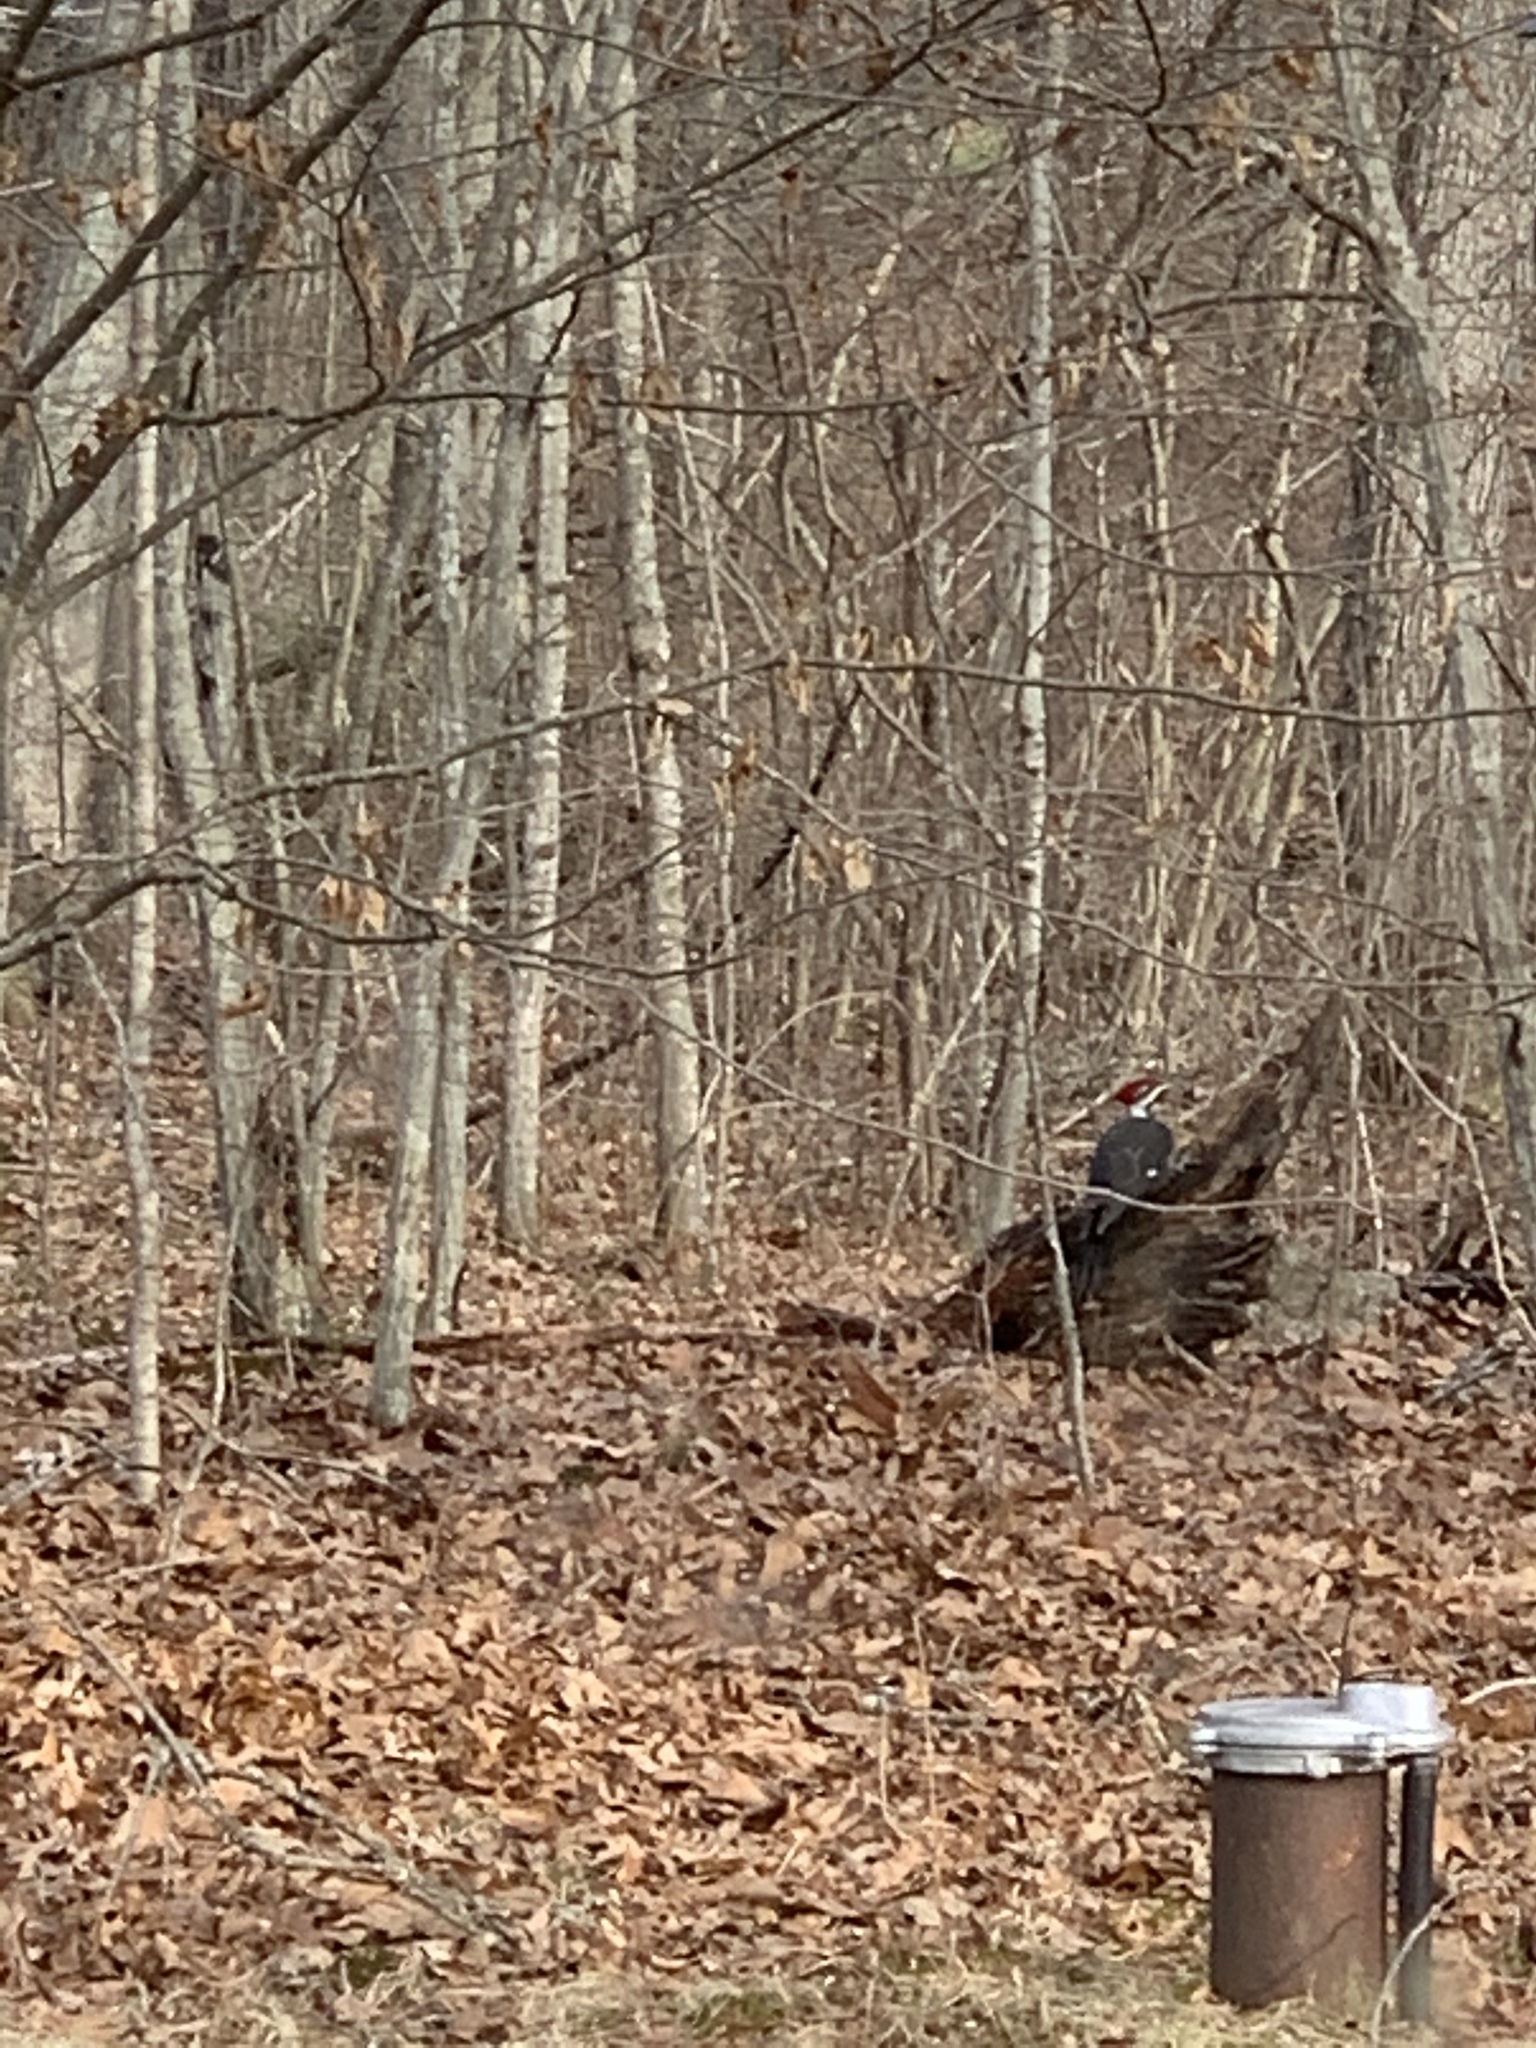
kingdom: Animalia
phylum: Chordata
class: Aves
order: Piciformes
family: Picidae
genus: Dryocopus
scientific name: Dryocopus pileatus
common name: Pileated woodpecker
